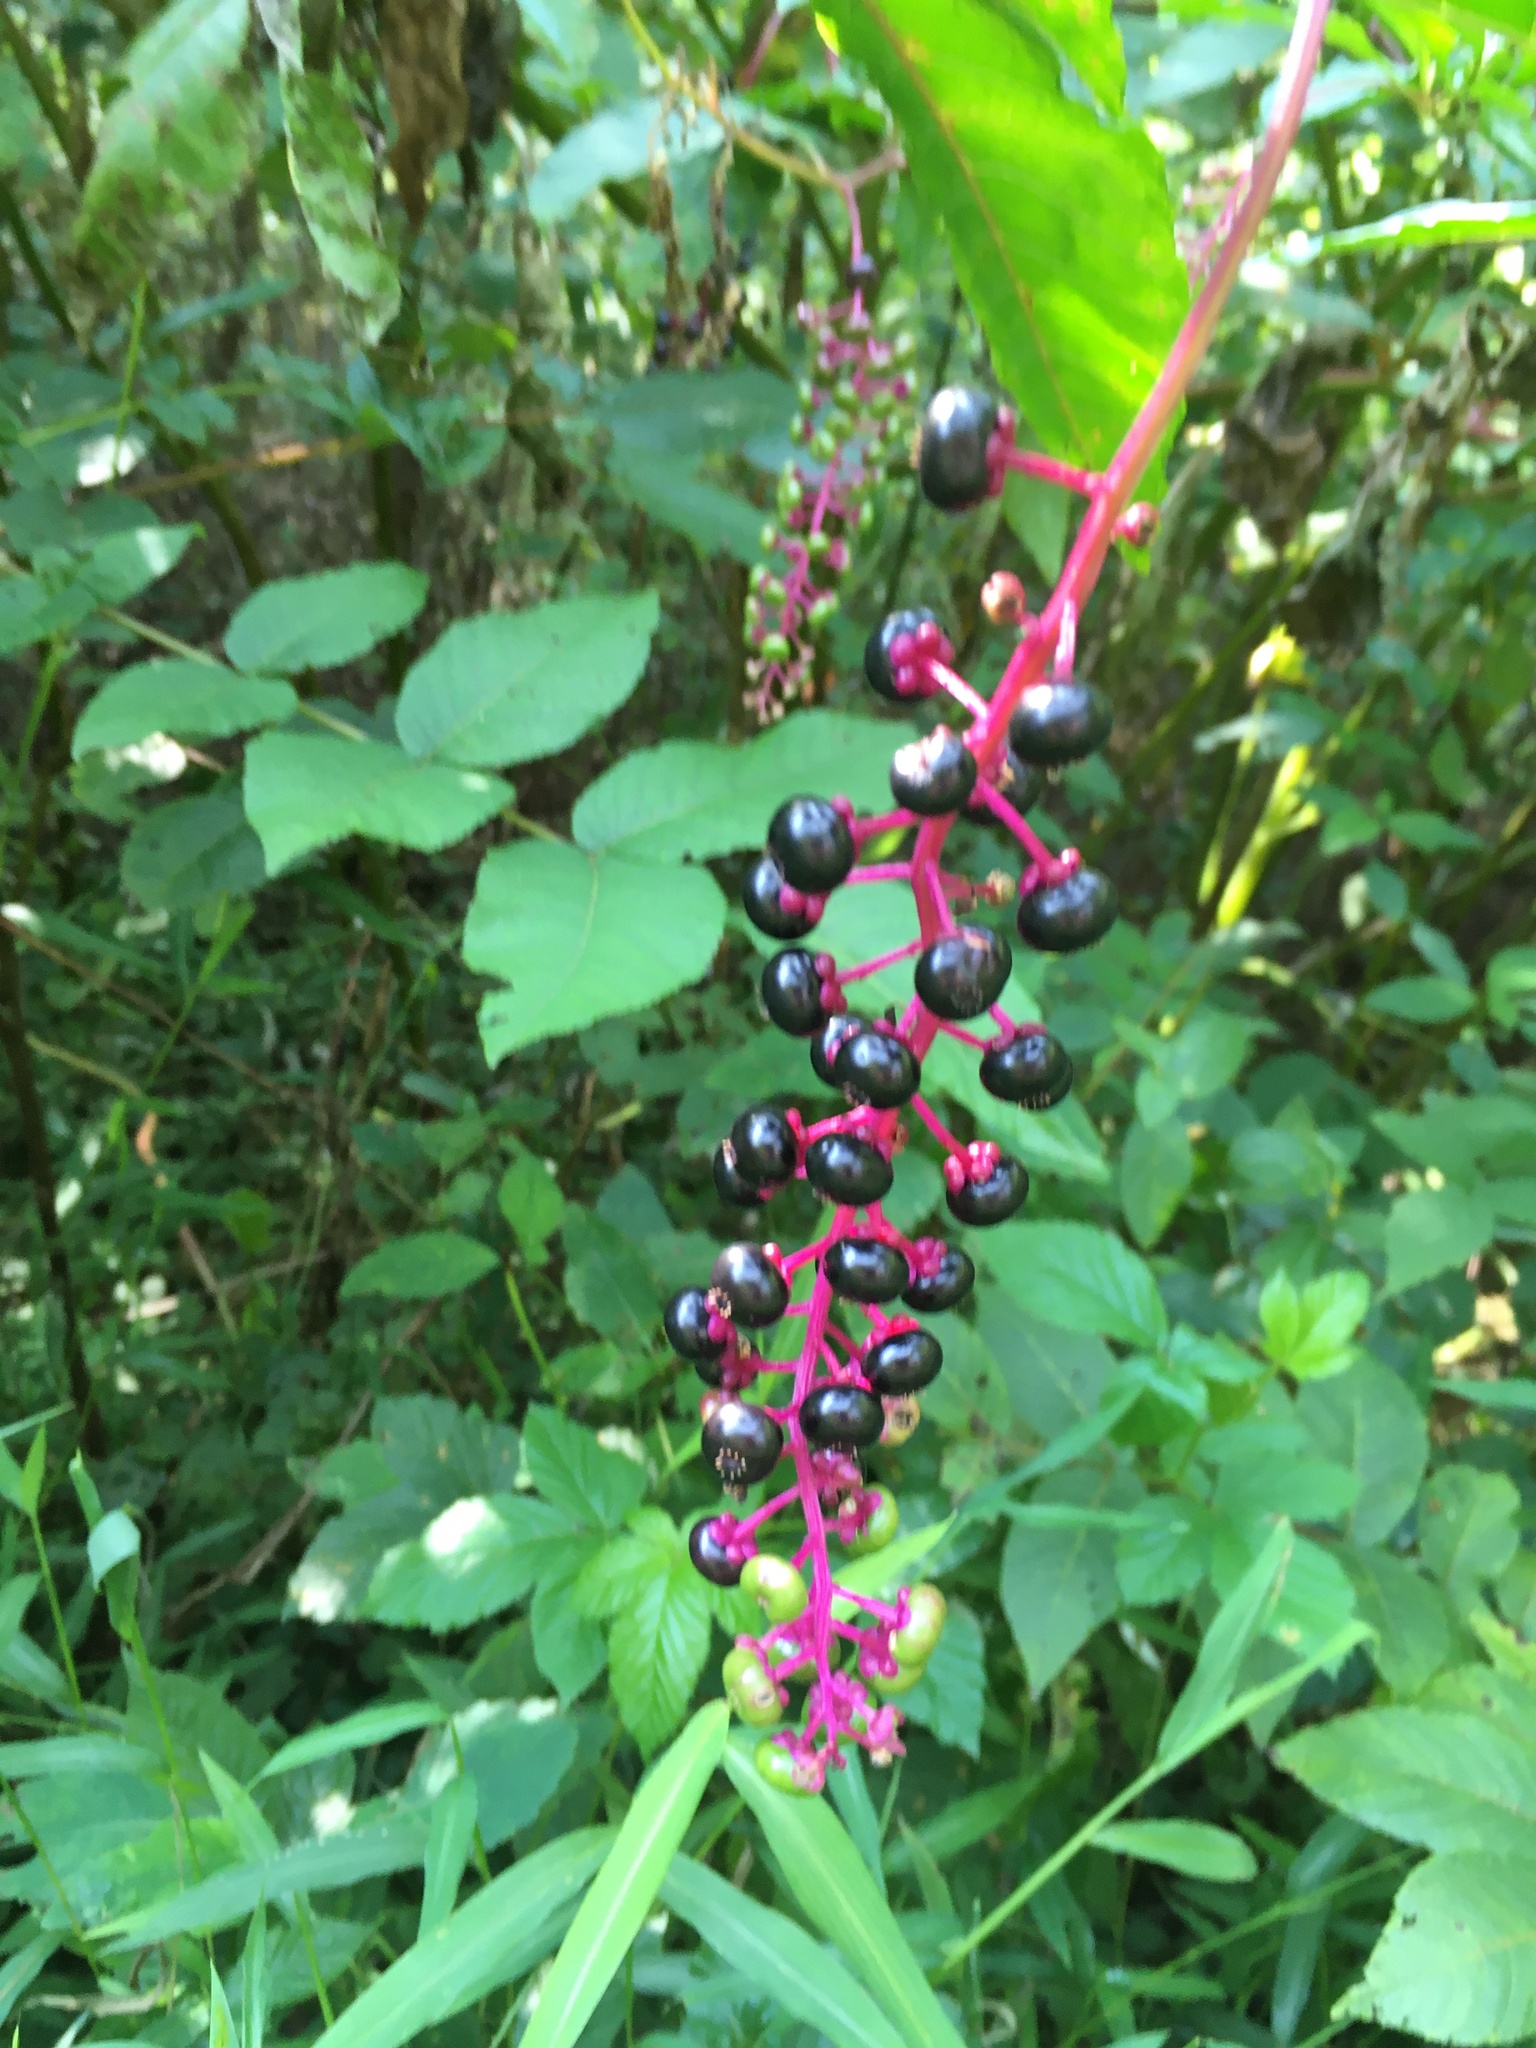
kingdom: Plantae
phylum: Tracheophyta
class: Magnoliopsida
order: Caryophyllales
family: Phytolaccaceae
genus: Phytolacca
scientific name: Phytolacca americana
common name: American pokeweed
